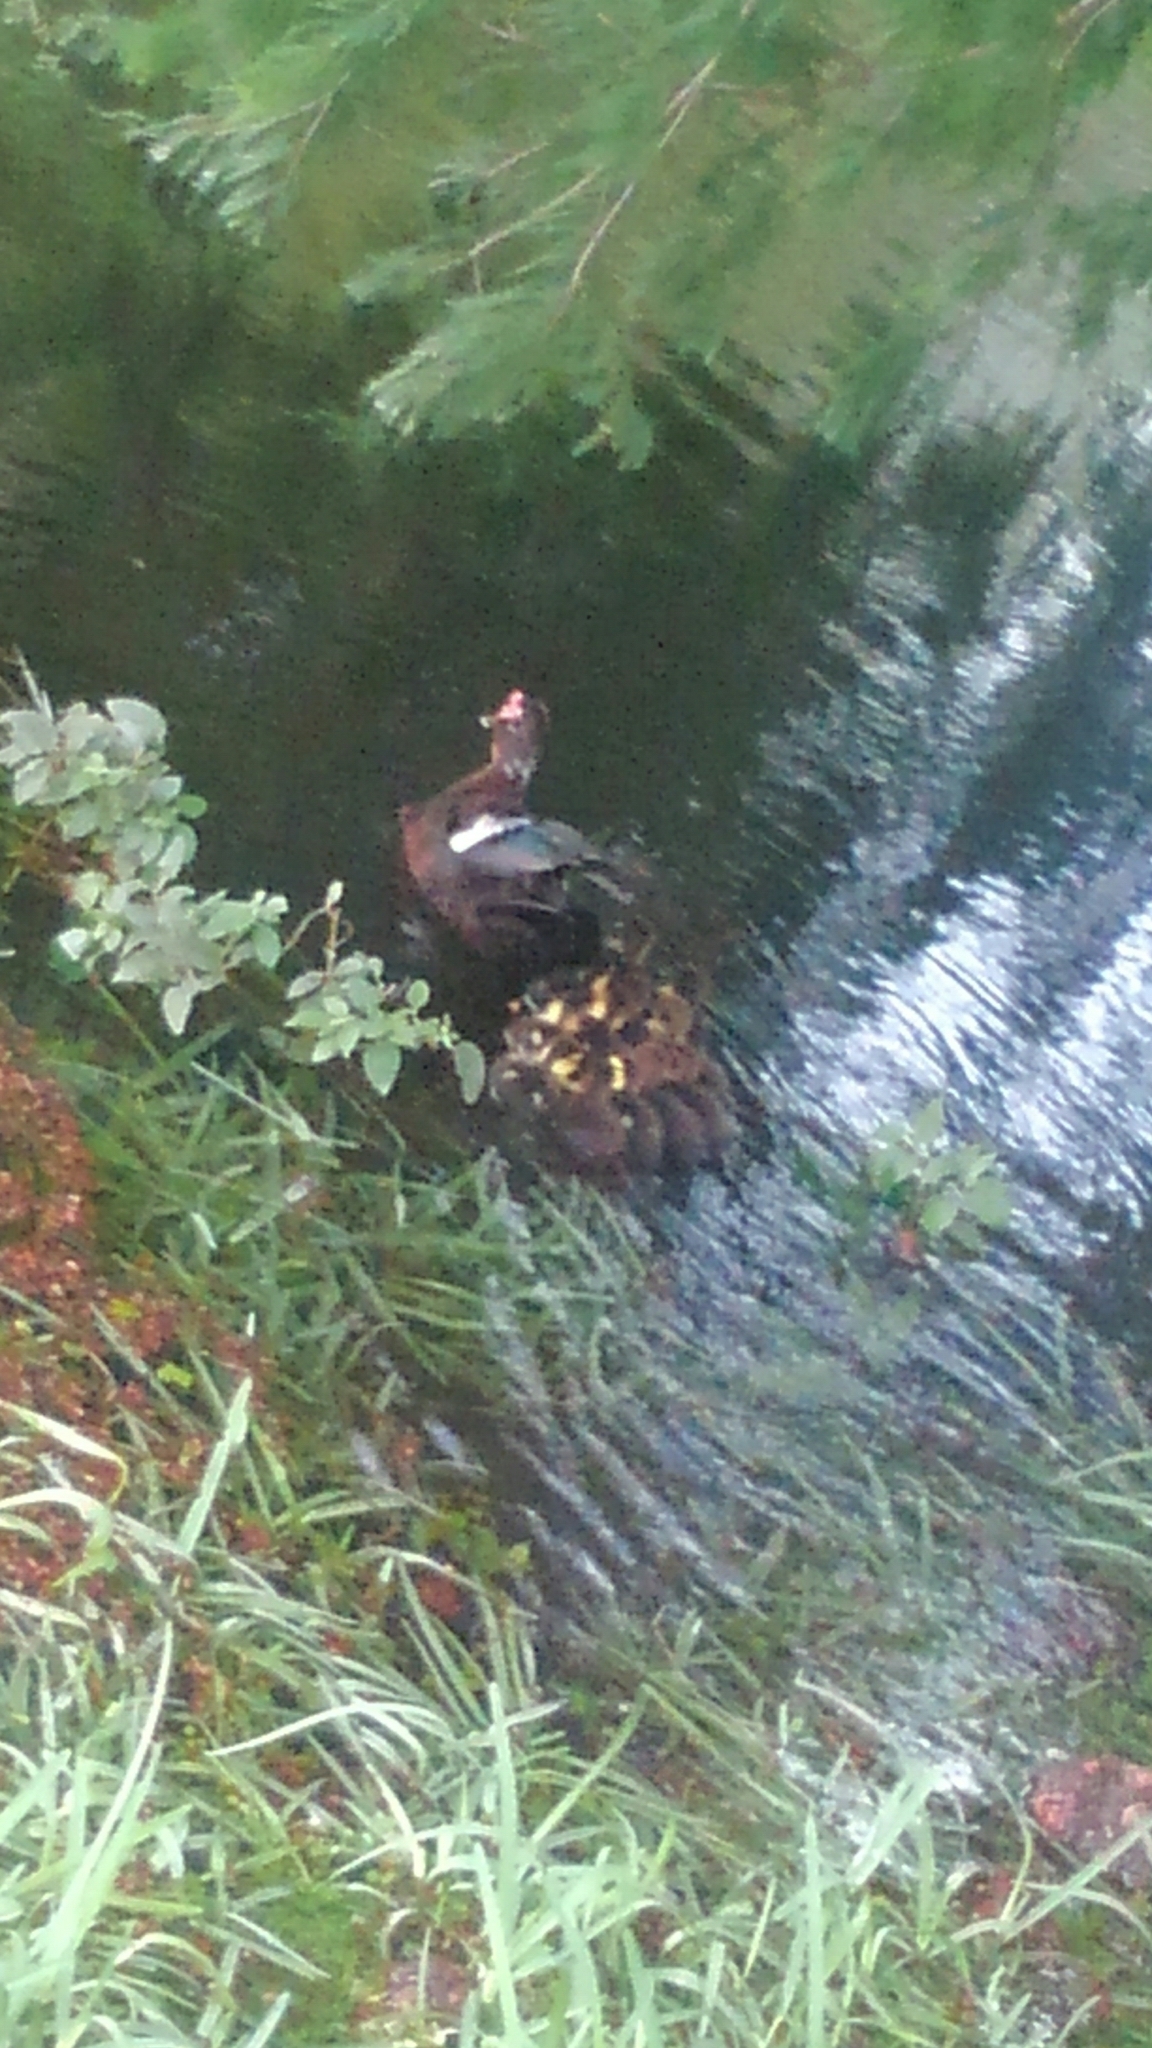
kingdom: Animalia
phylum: Chordata
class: Aves
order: Anseriformes
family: Anatidae
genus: Cairina
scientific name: Cairina moschata
